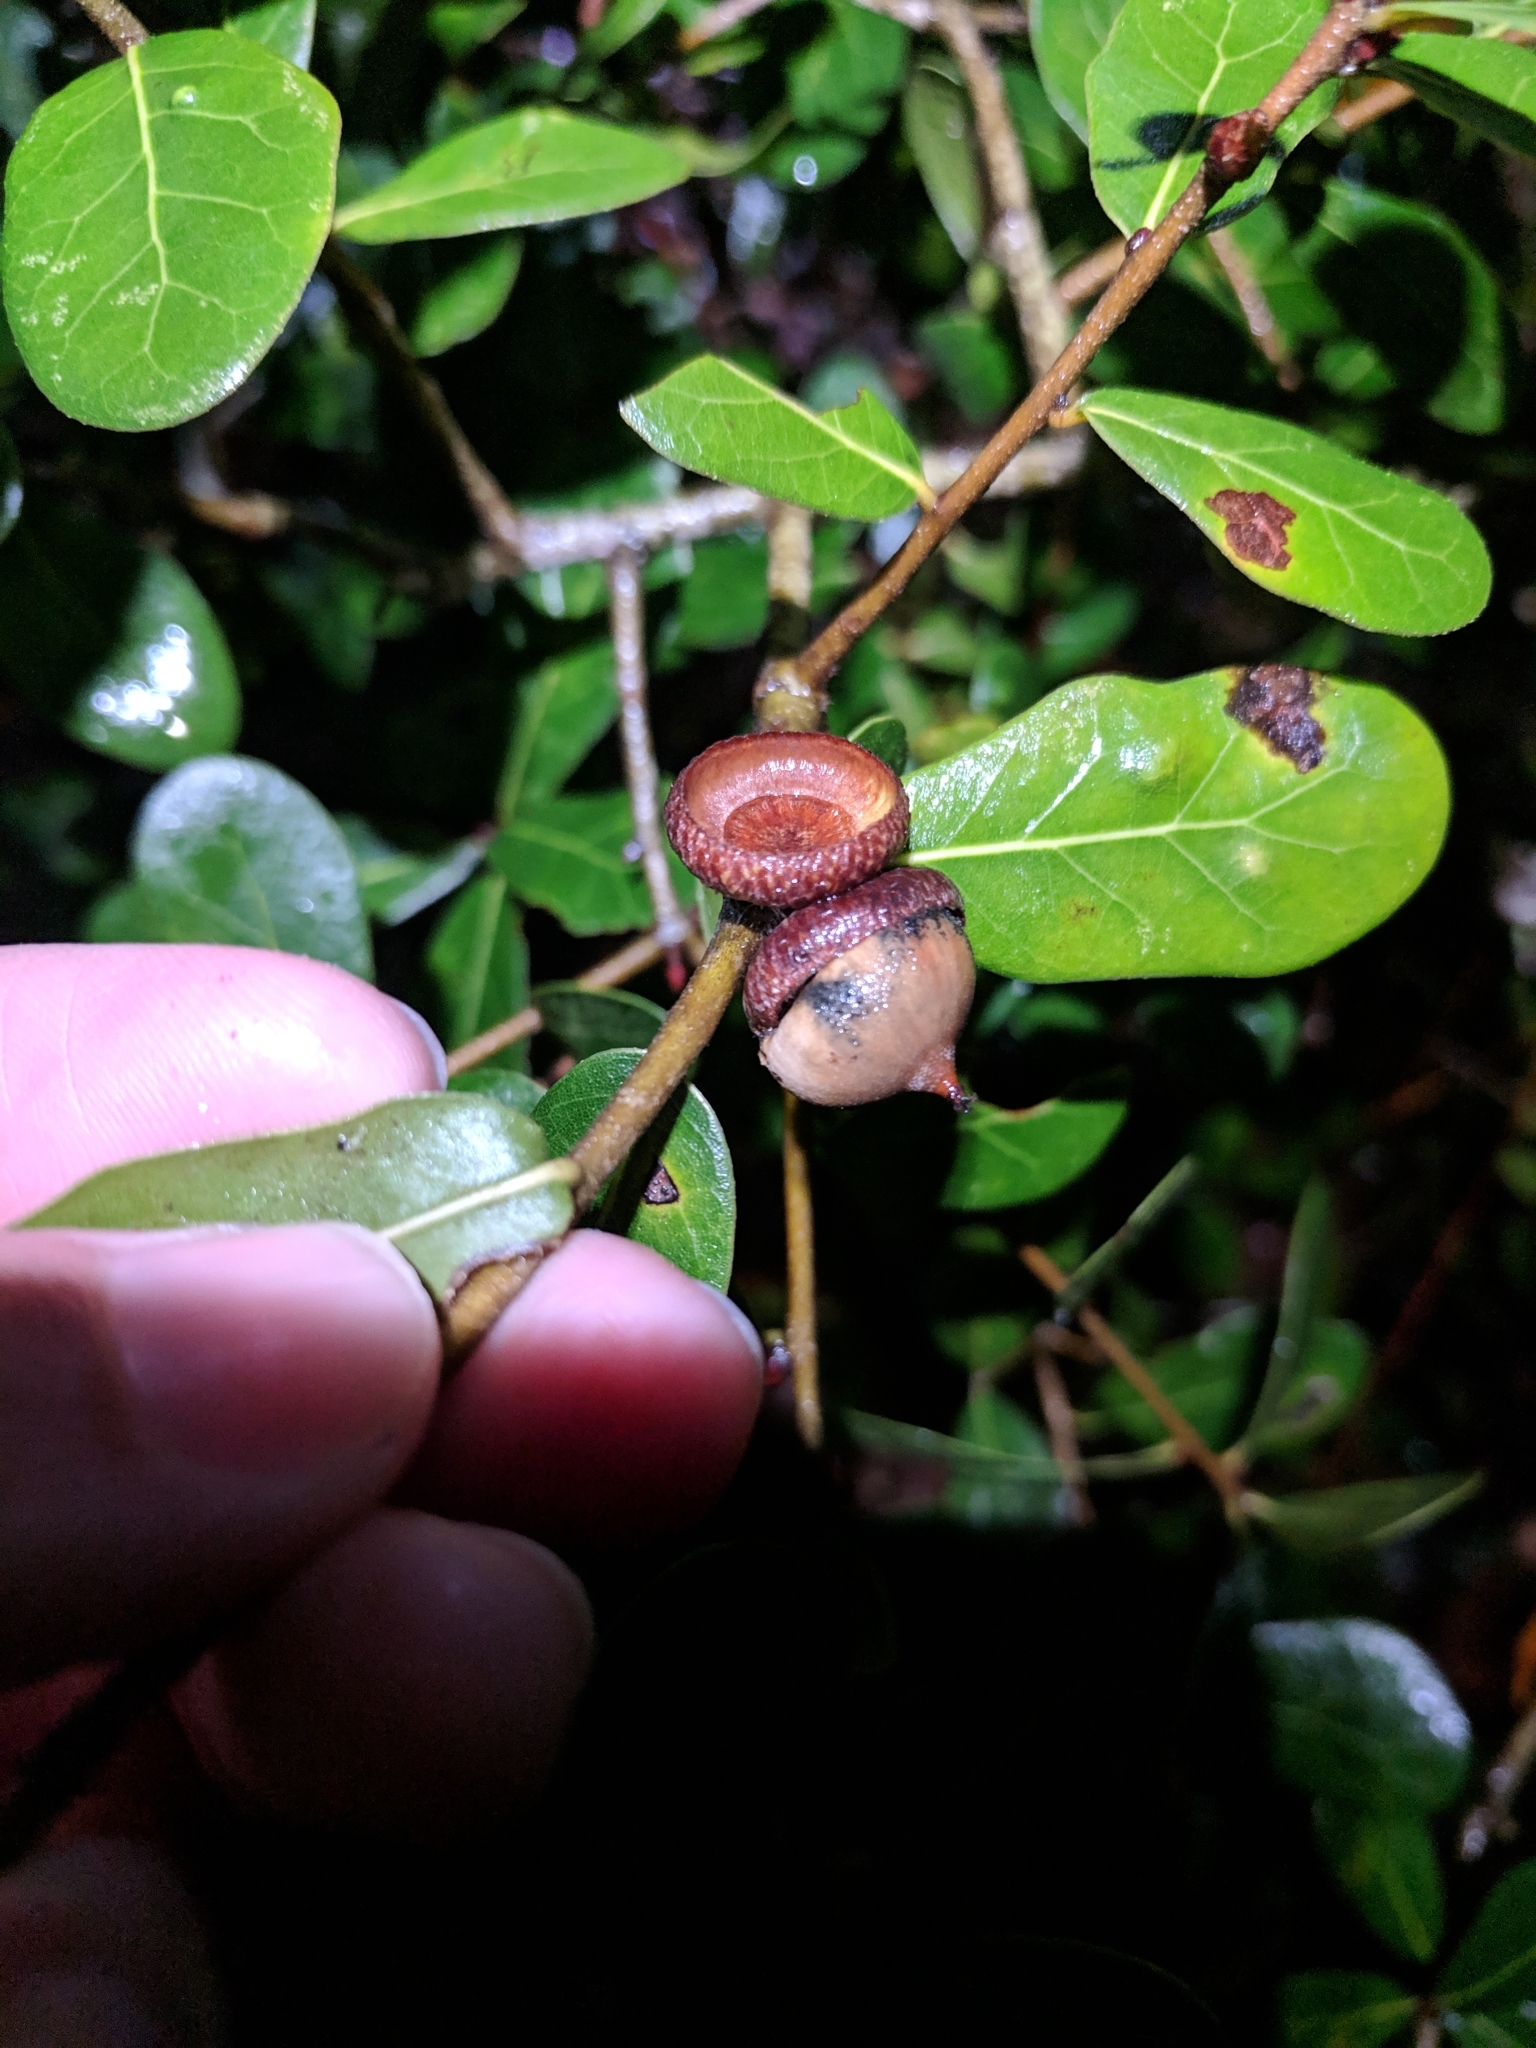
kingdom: Plantae
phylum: Tracheophyta
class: Magnoliopsida
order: Fagales
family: Fagaceae
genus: Quercus
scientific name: Quercus myrtifolia
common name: Myrtle oak
